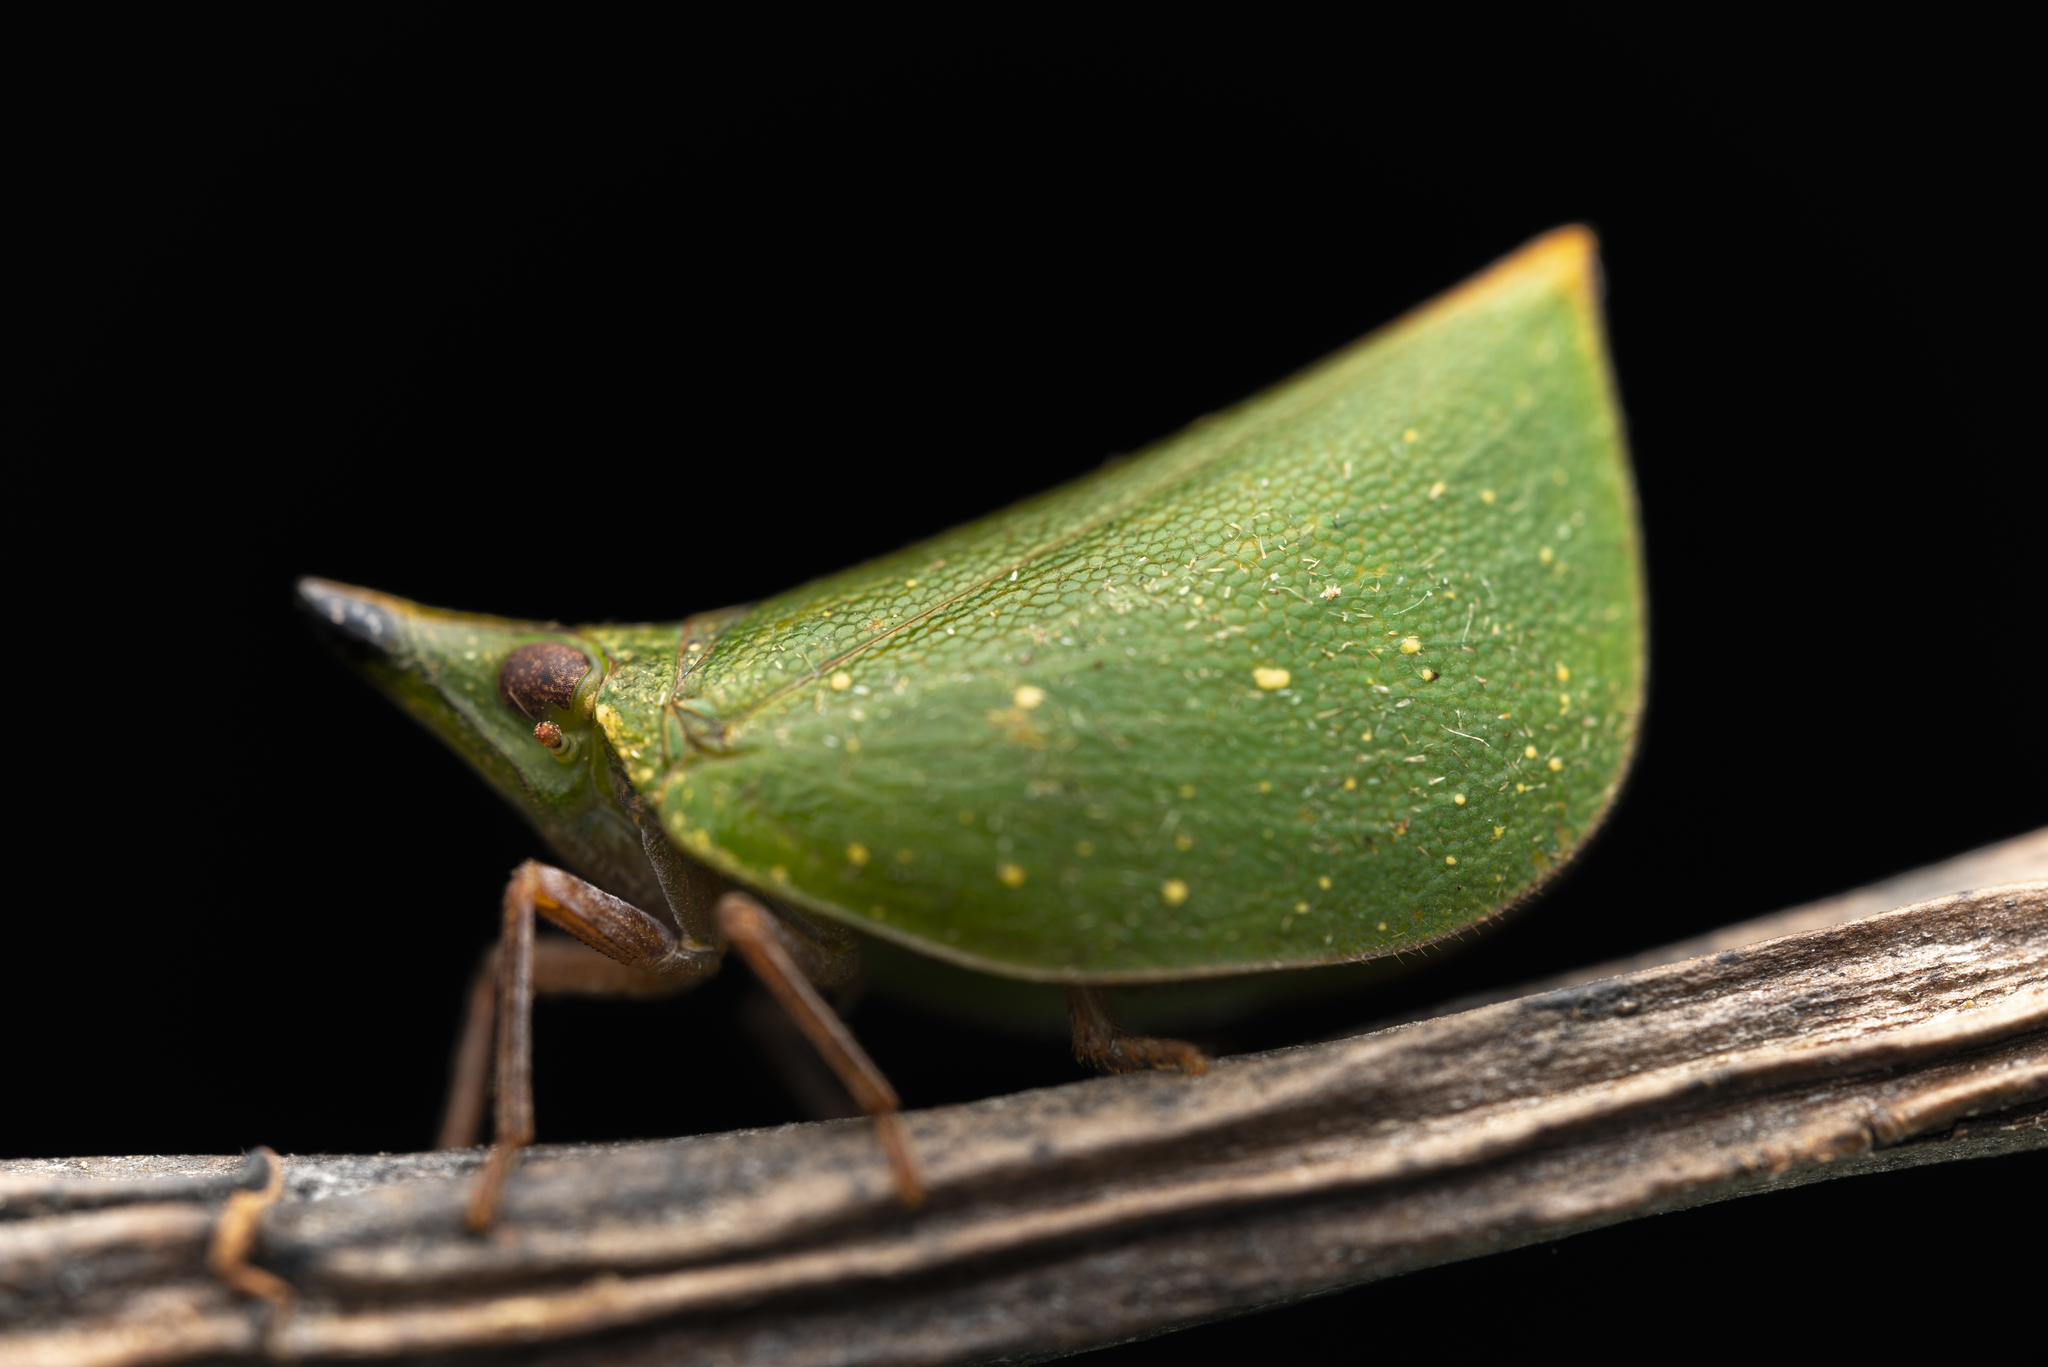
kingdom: Animalia
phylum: Arthropoda
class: Insecta
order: Hemiptera
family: Nogodinidae
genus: Tonga
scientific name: Tonga westwoodi
